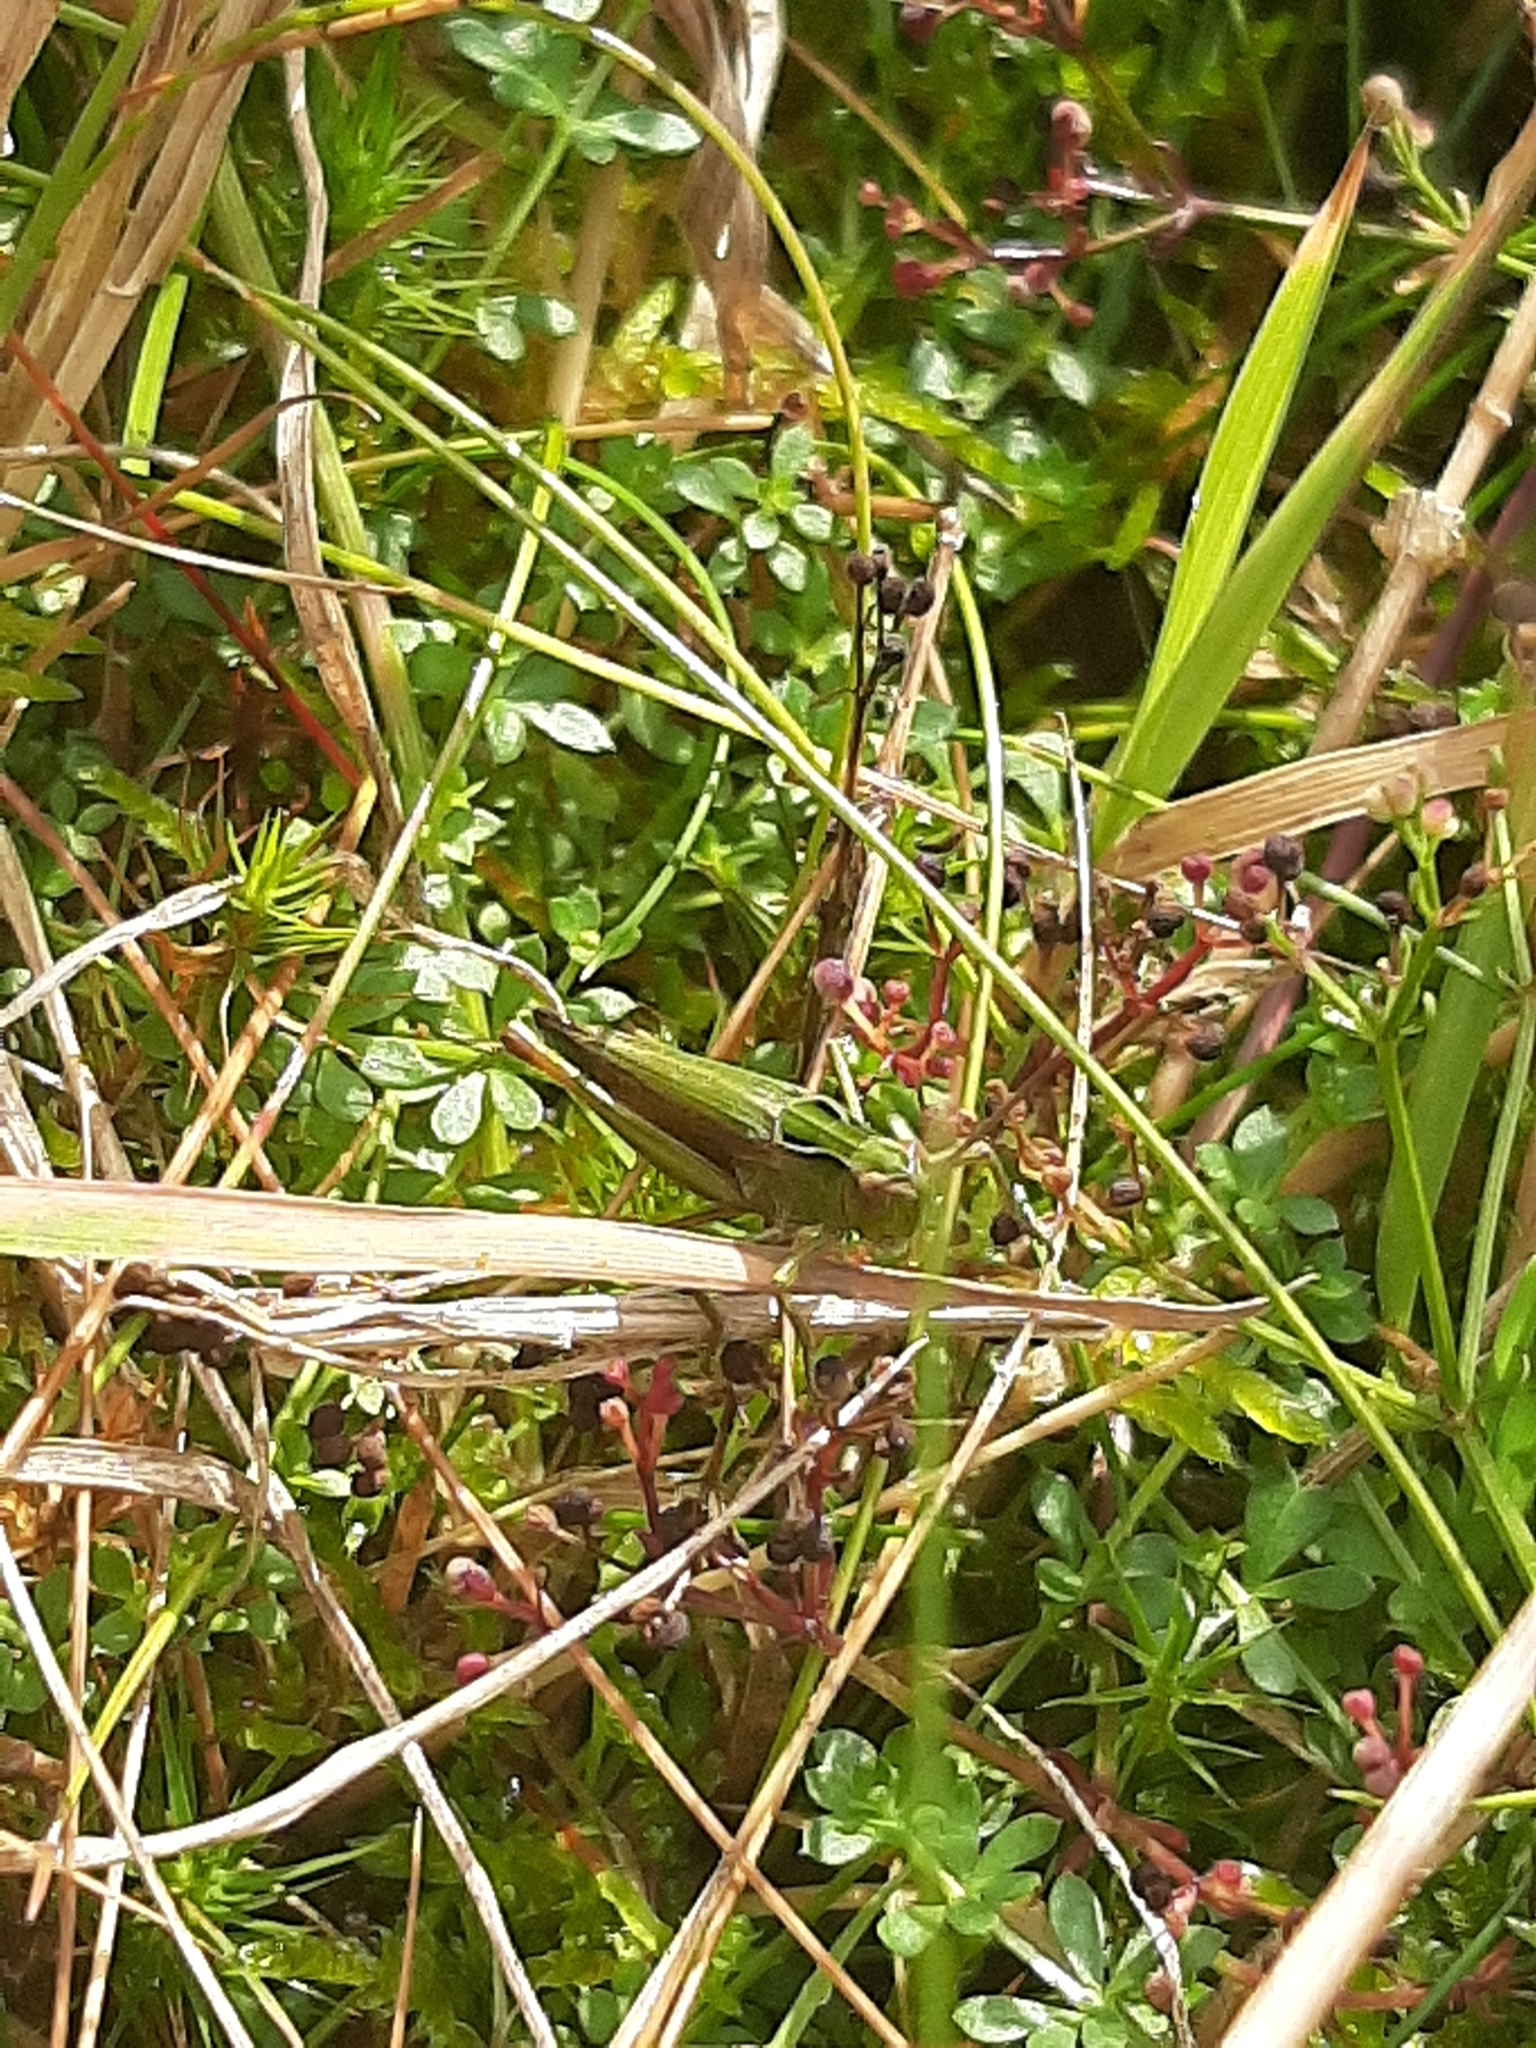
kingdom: Animalia
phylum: Arthropoda
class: Insecta
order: Orthoptera
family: Acrididae
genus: Omocestus
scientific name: Omocestus viridulus
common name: Common green grasshopper
